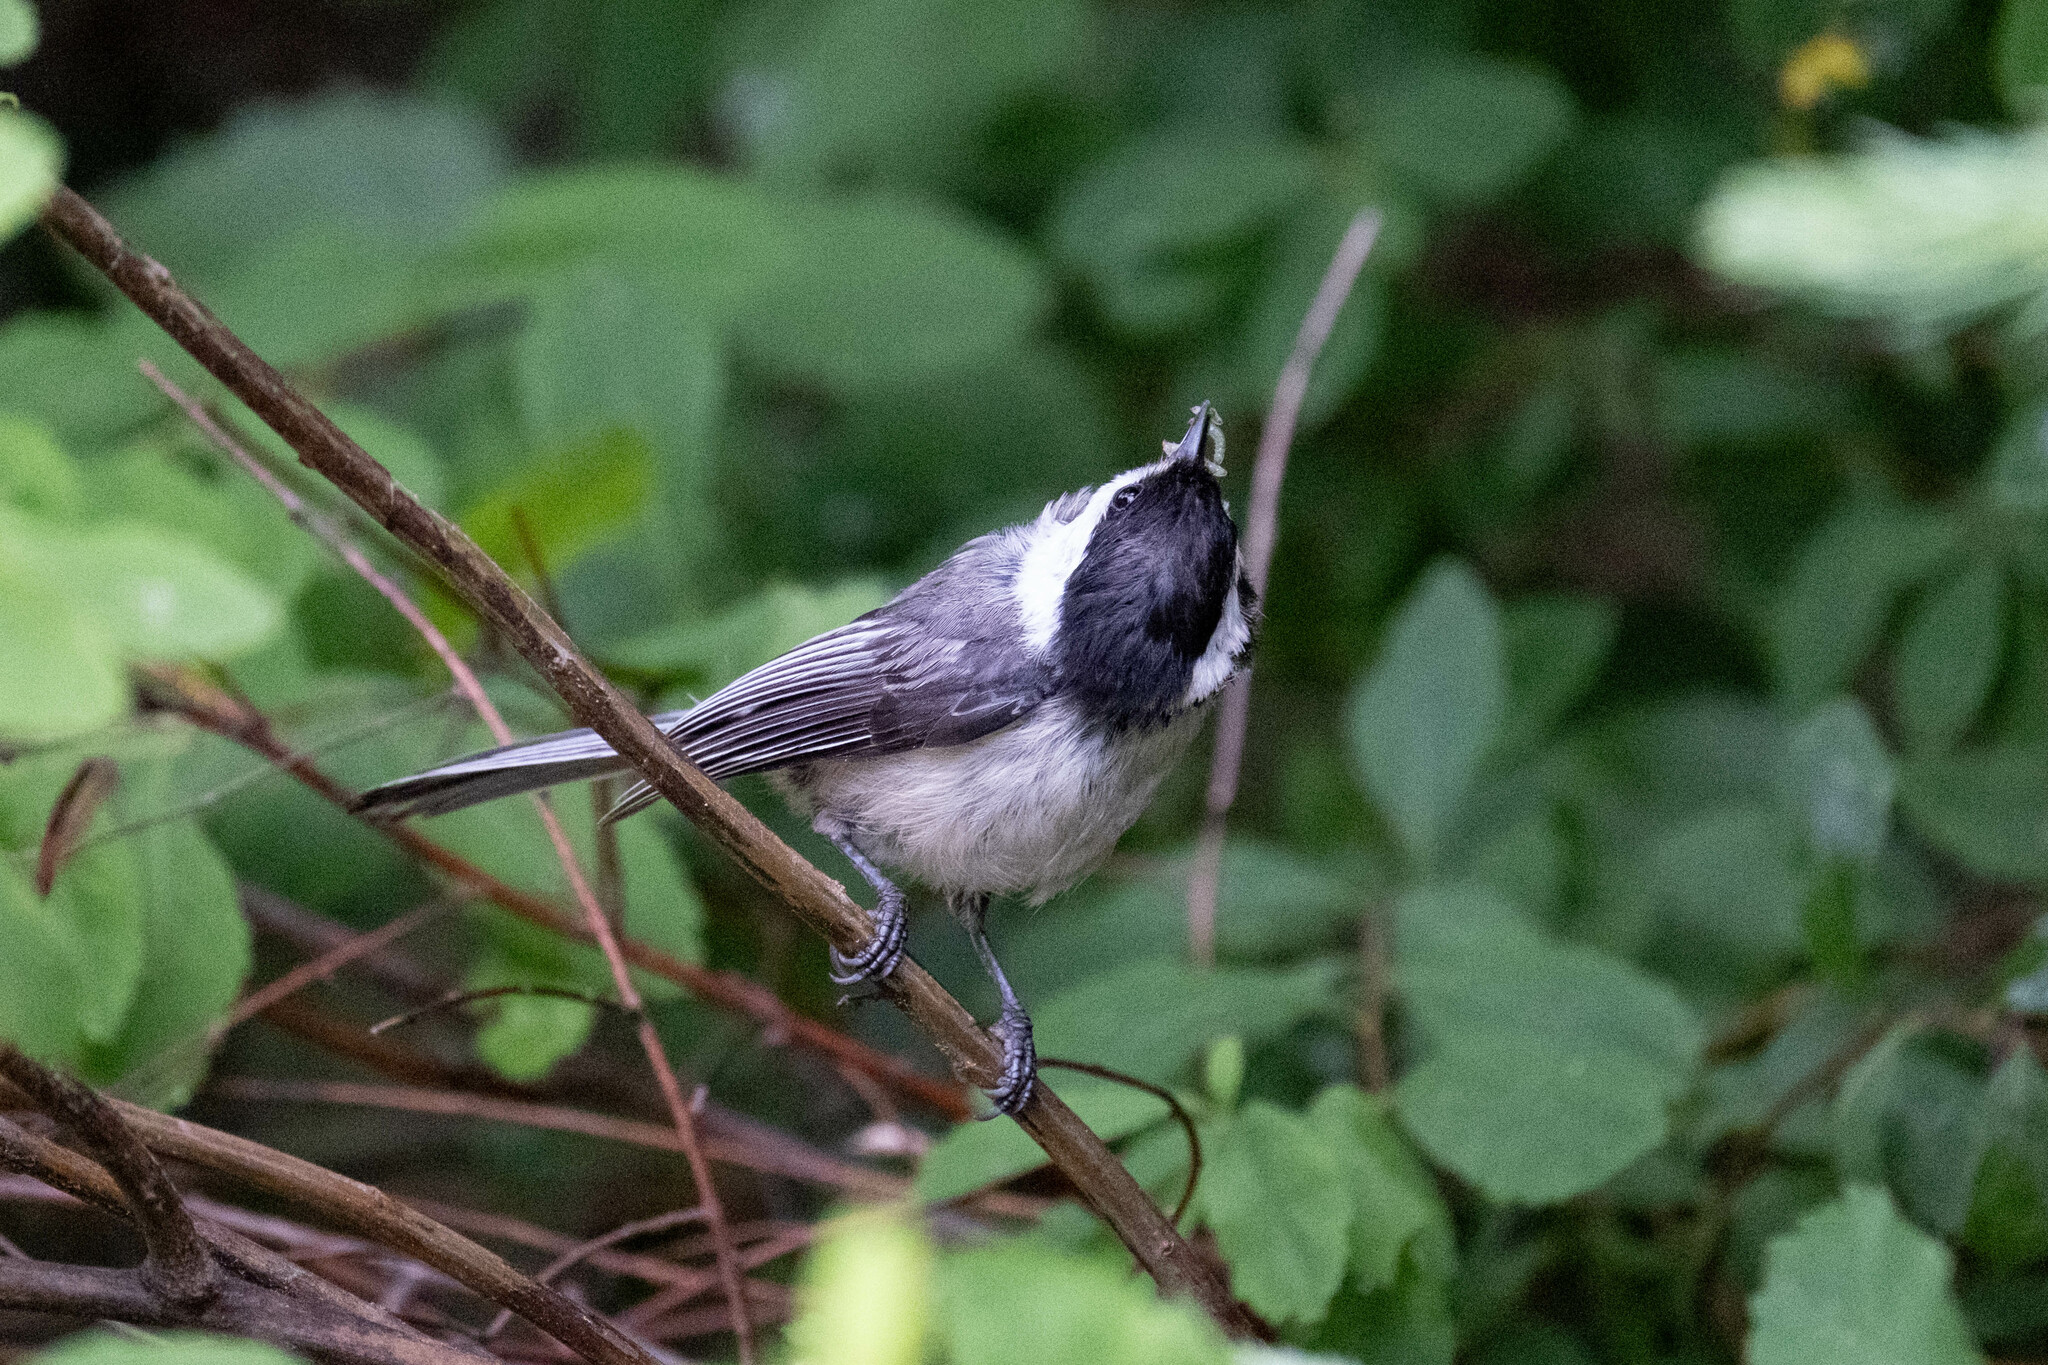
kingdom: Animalia
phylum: Chordata
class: Aves
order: Passeriformes
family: Paridae
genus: Poecile
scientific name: Poecile atricapillus
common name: Black-capped chickadee
